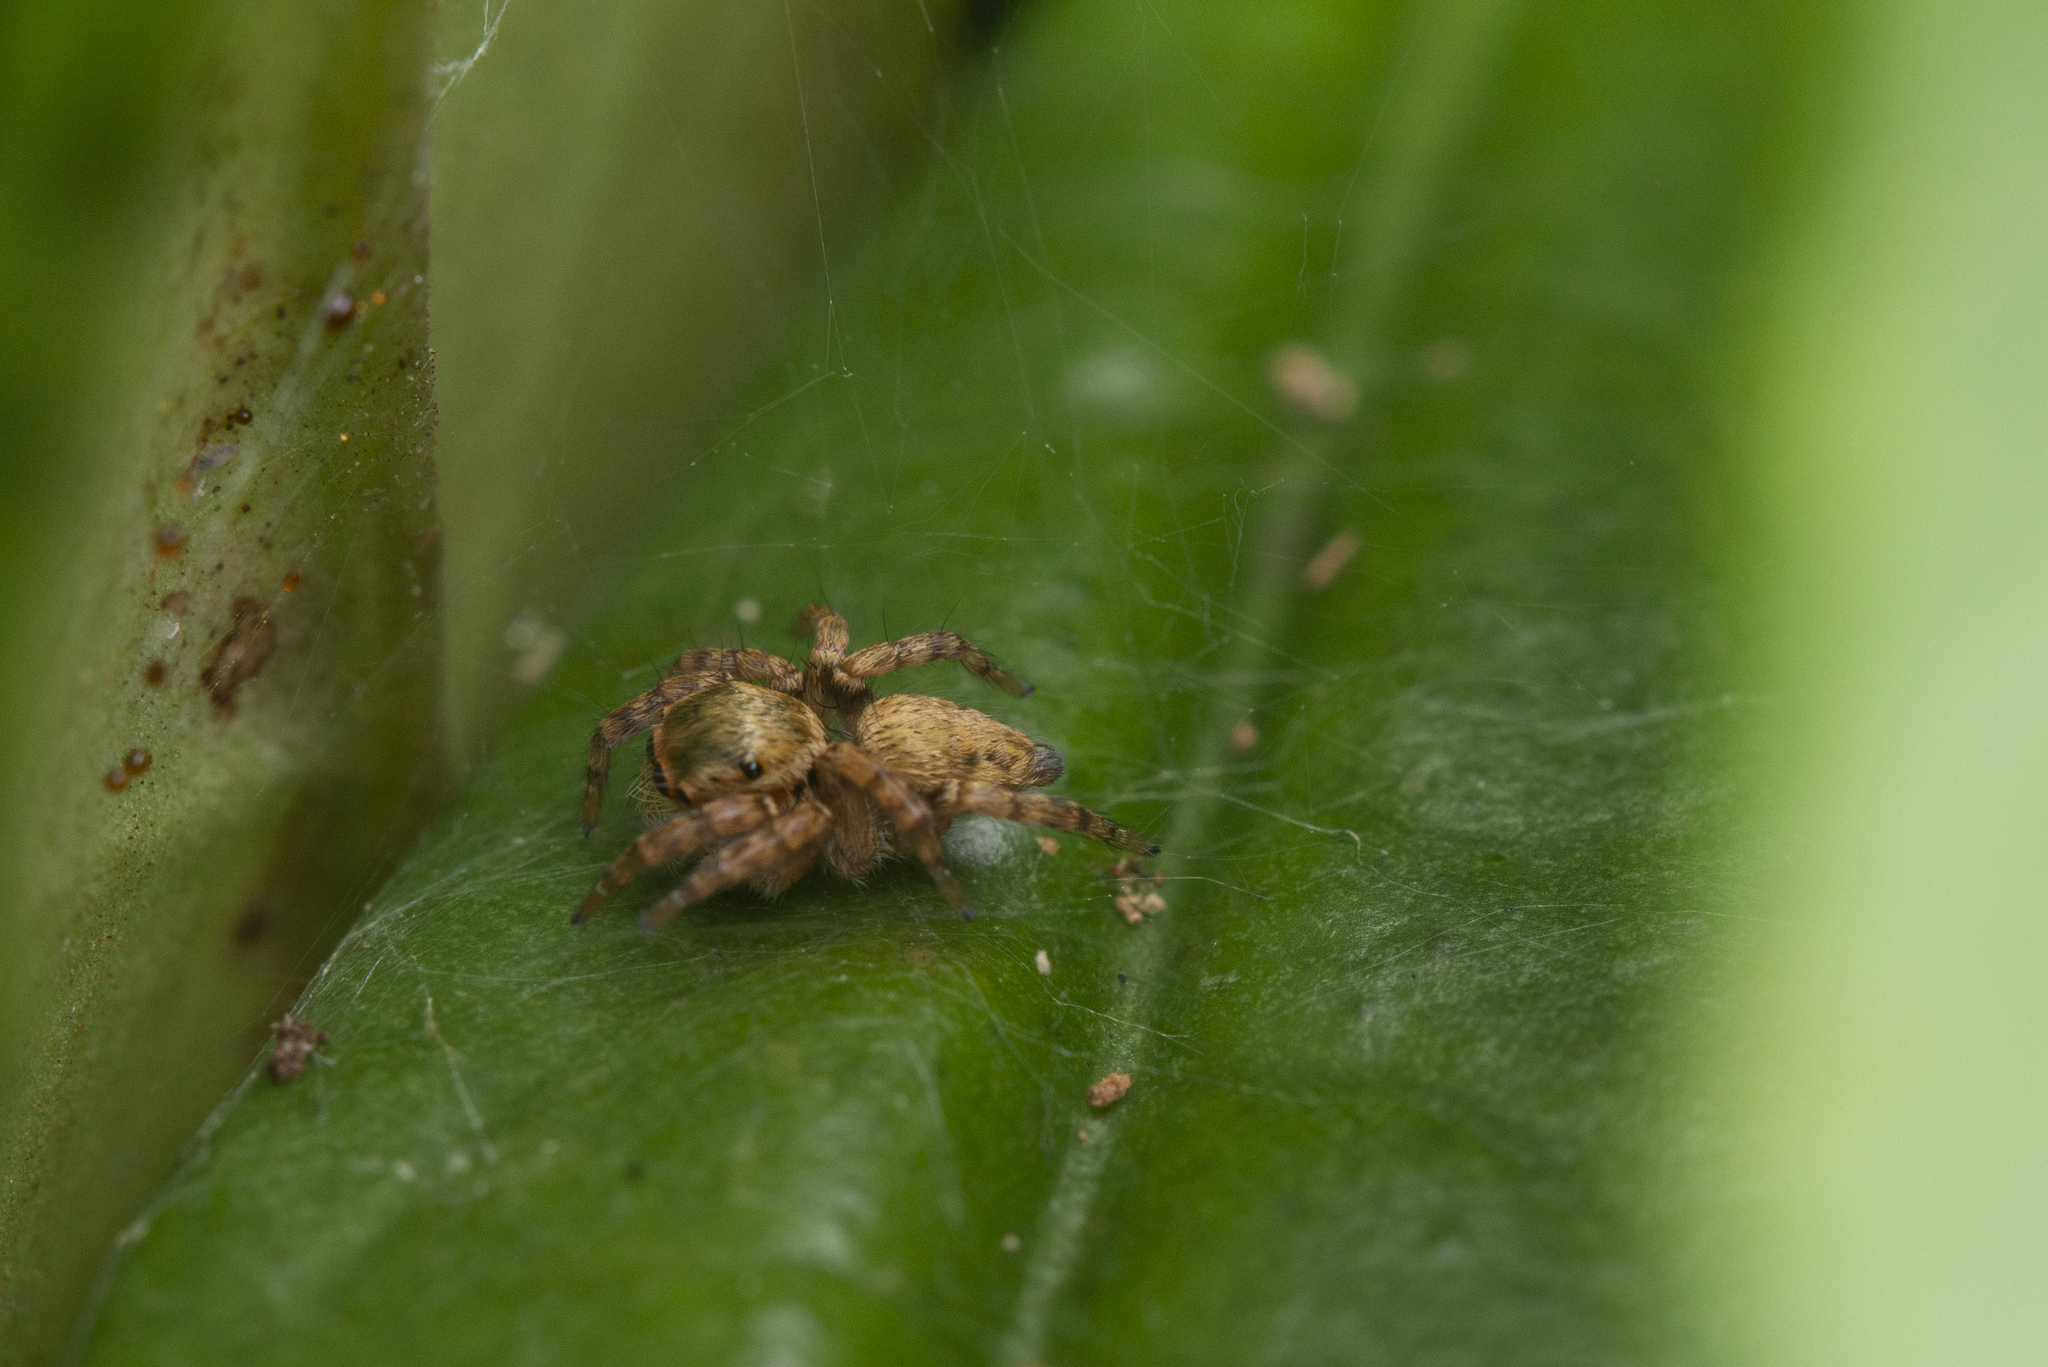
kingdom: Animalia
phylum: Arthropoda
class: Arachnida
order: Araneae
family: Salticidae
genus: Carrhotus
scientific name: Carrhotus viduus
